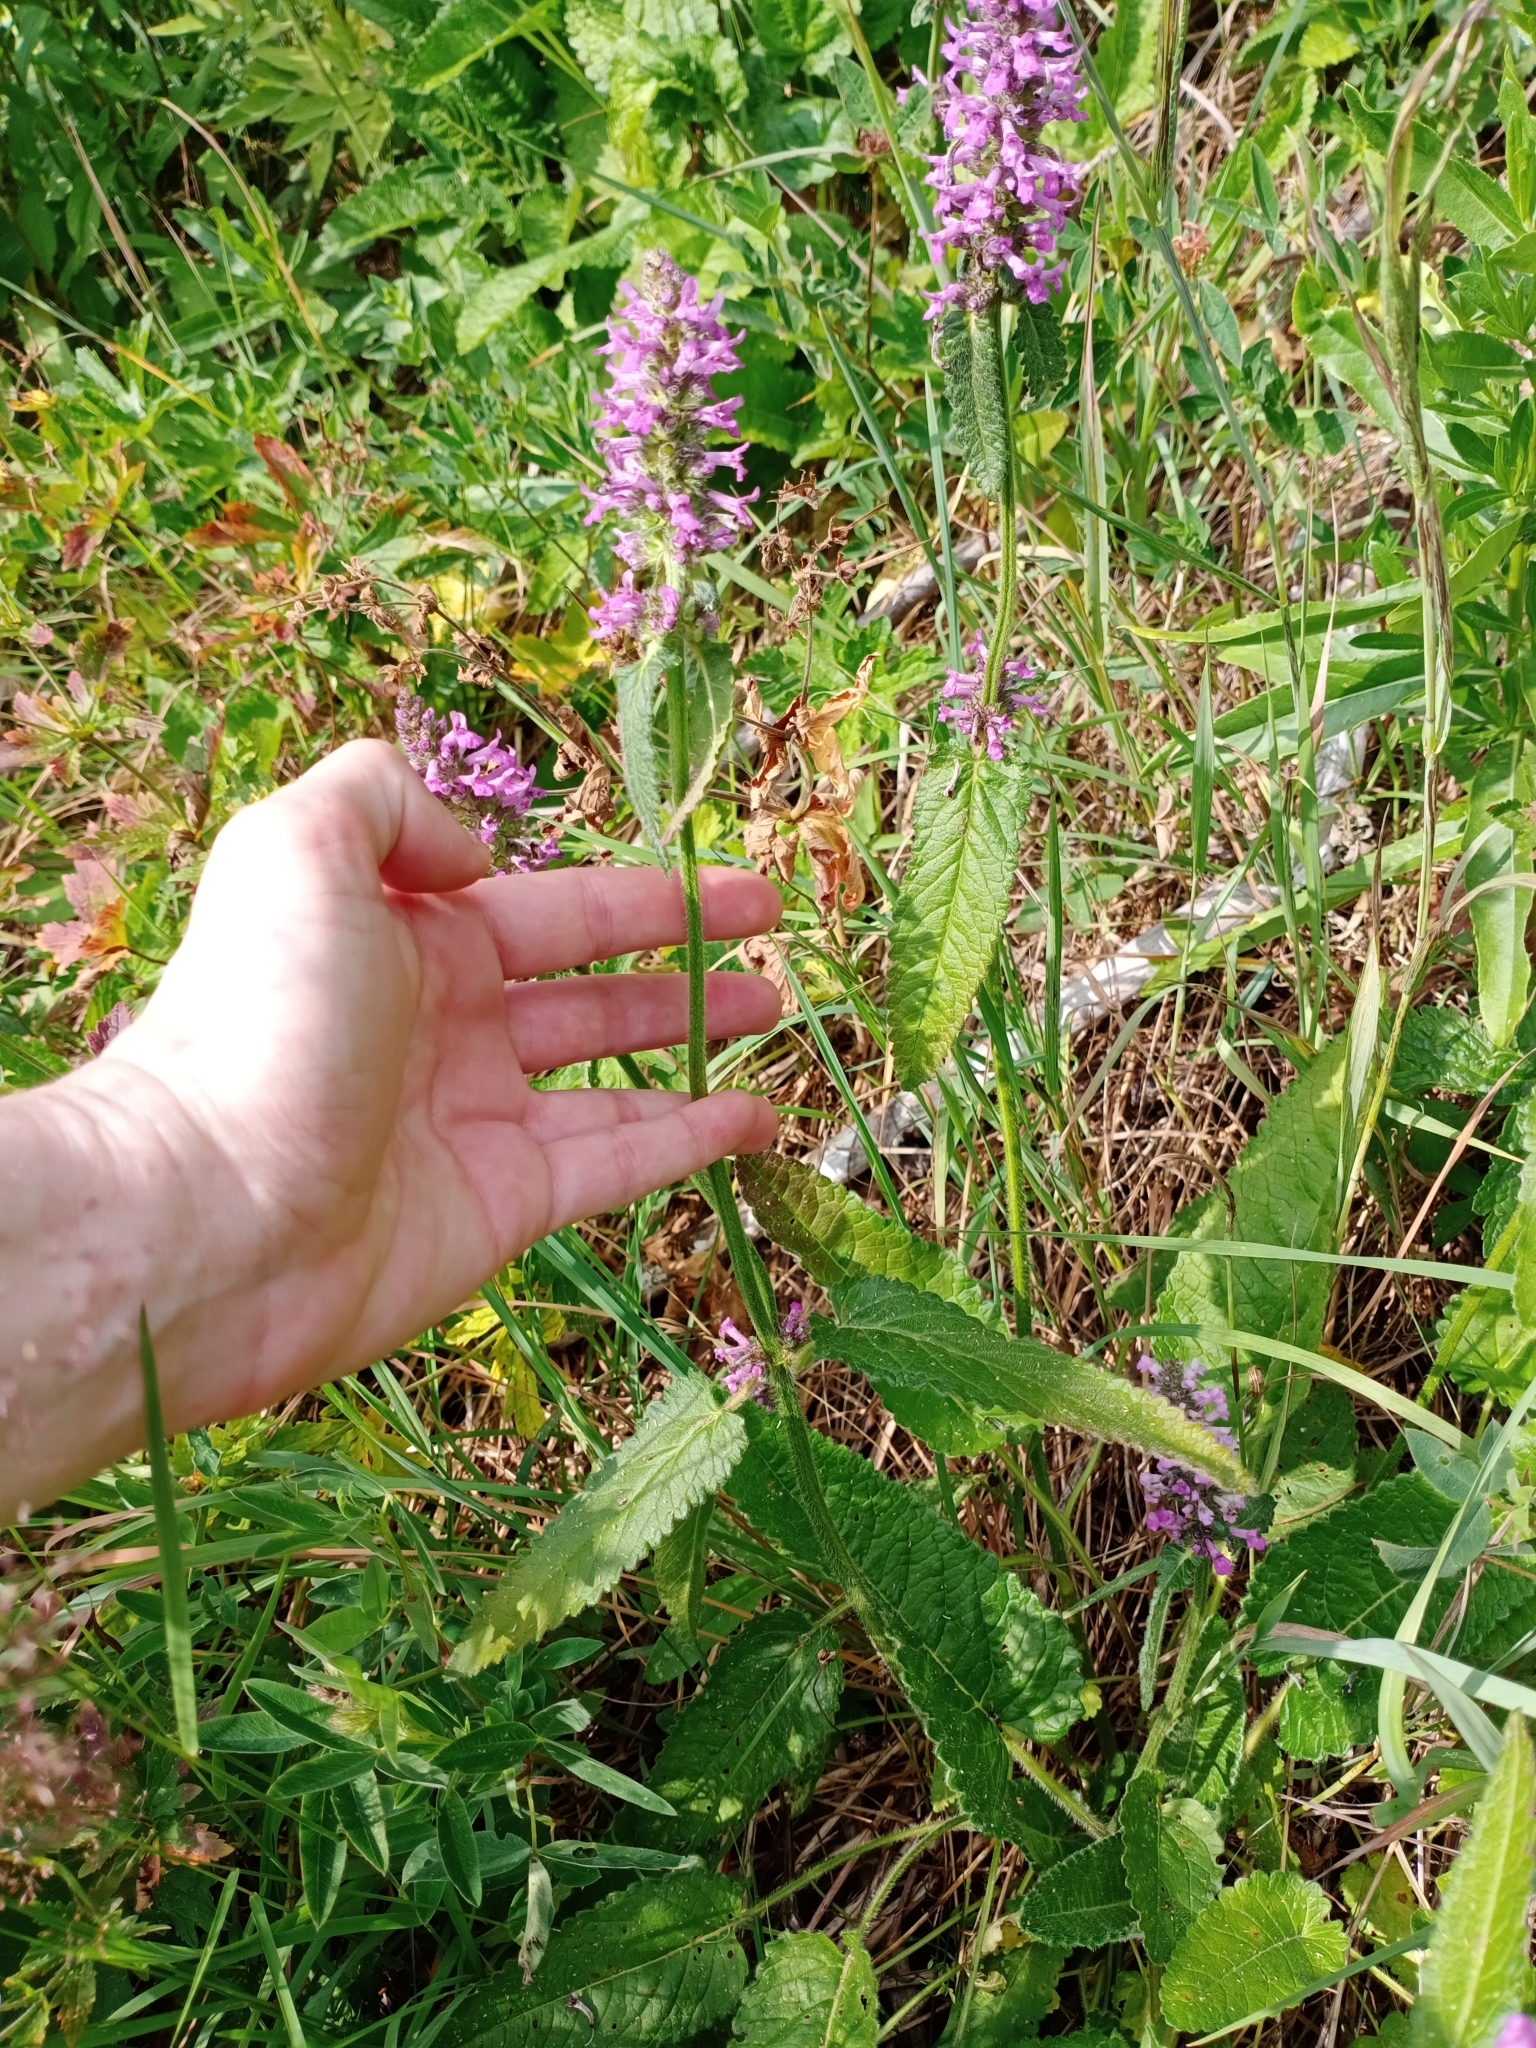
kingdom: Plantae
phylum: Tracheophyta
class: Magnoliopsida
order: Lamiales
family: Lamiaceae
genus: Betonica
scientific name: Betonica officinalis
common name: Bishop's-wort
